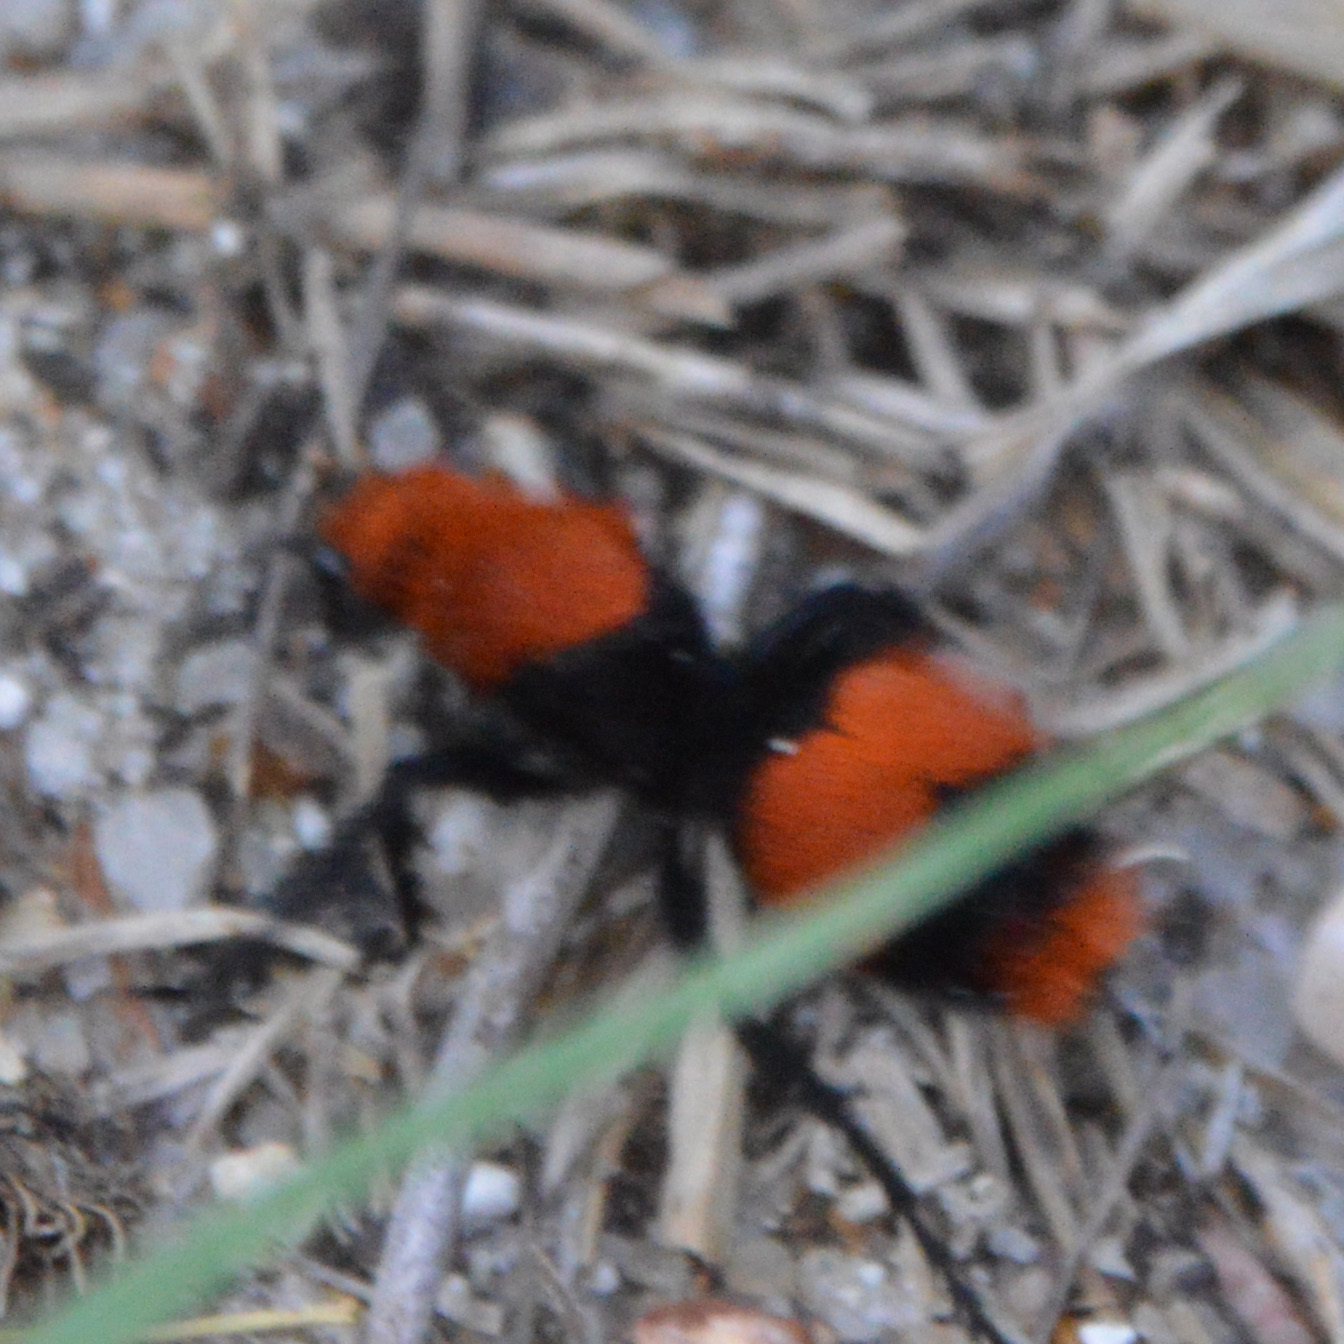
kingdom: Animalia
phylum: Arthropoda
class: Insecta
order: Hymenoptera
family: Mutillidae
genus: Dasymutilla
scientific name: Dasymutilla occidentalis
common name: Common eastern velvet ant
